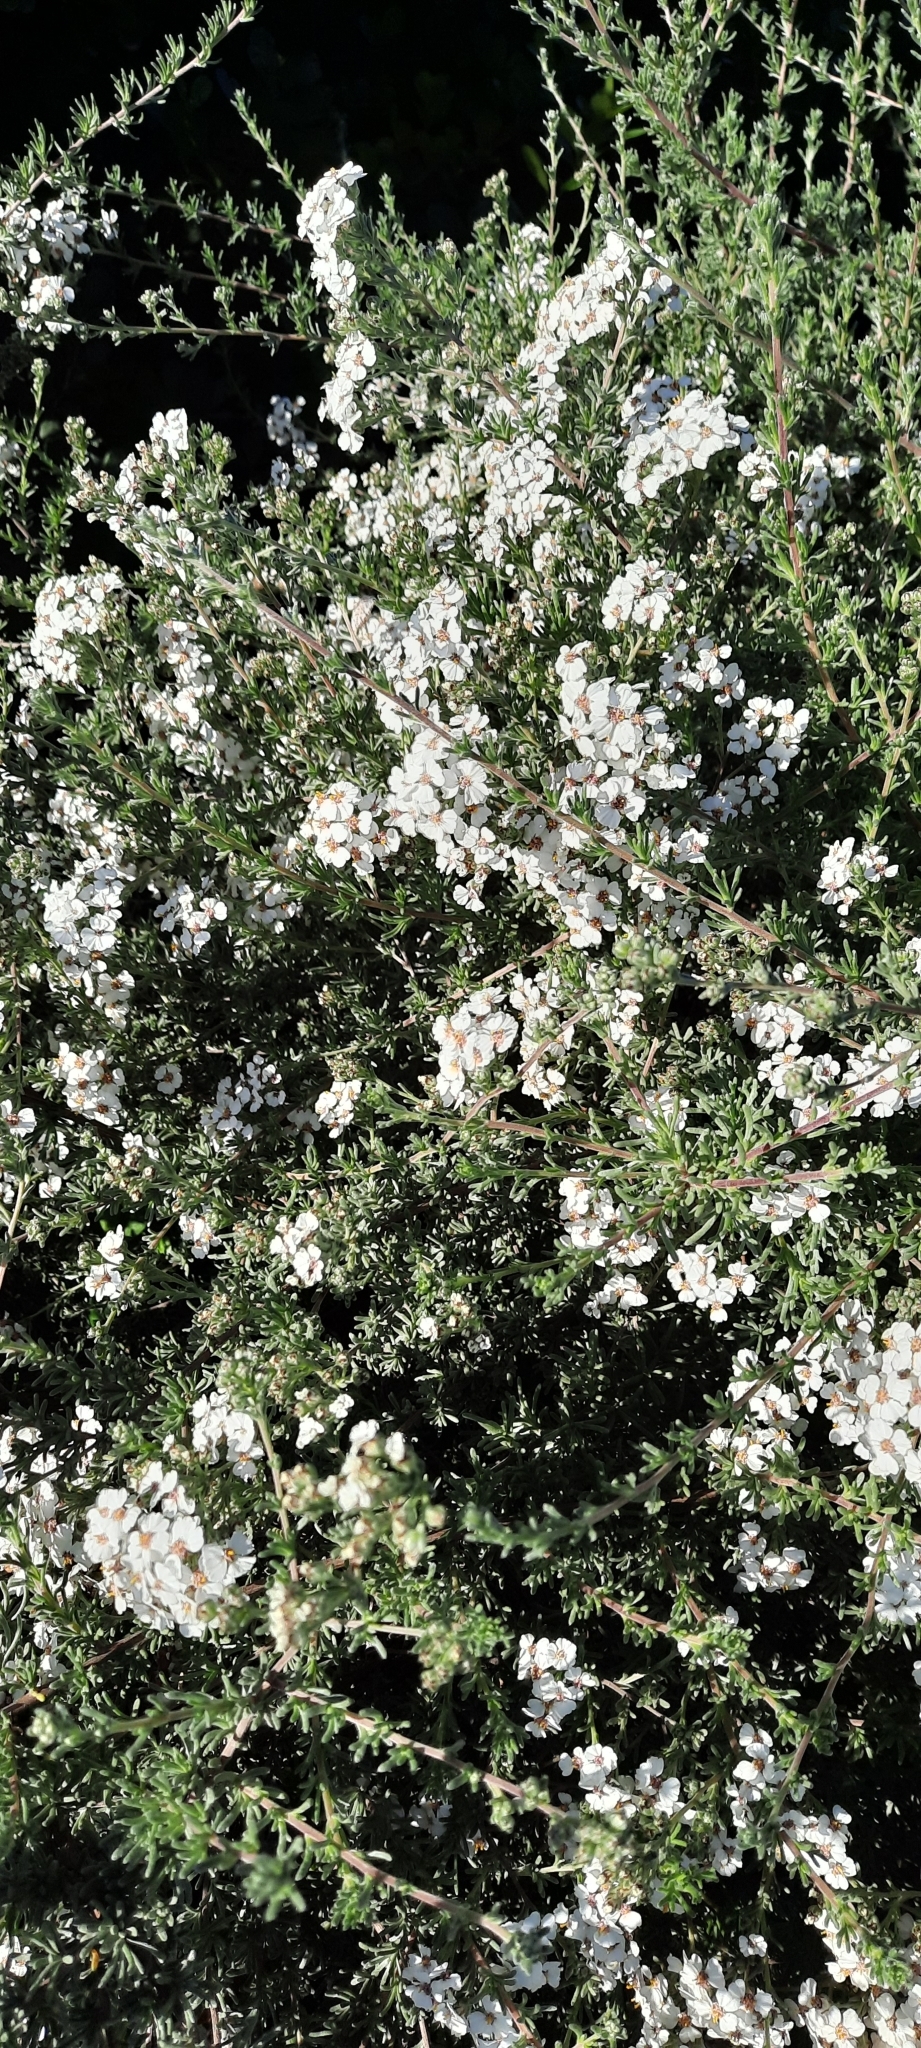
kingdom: Plantae
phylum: Tracheophyta
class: Magnoliopsida
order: Asterales
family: Asteraceae
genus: Eriocephalus
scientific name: Eriocephalus africanus
